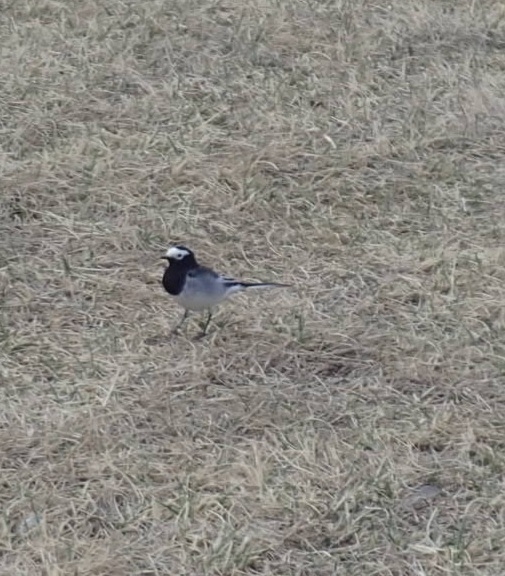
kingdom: Animalia
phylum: Chordata
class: Aves
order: Passeriformes
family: Motacillidae
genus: Motacilla
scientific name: Motacilla alba
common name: White wagtail
